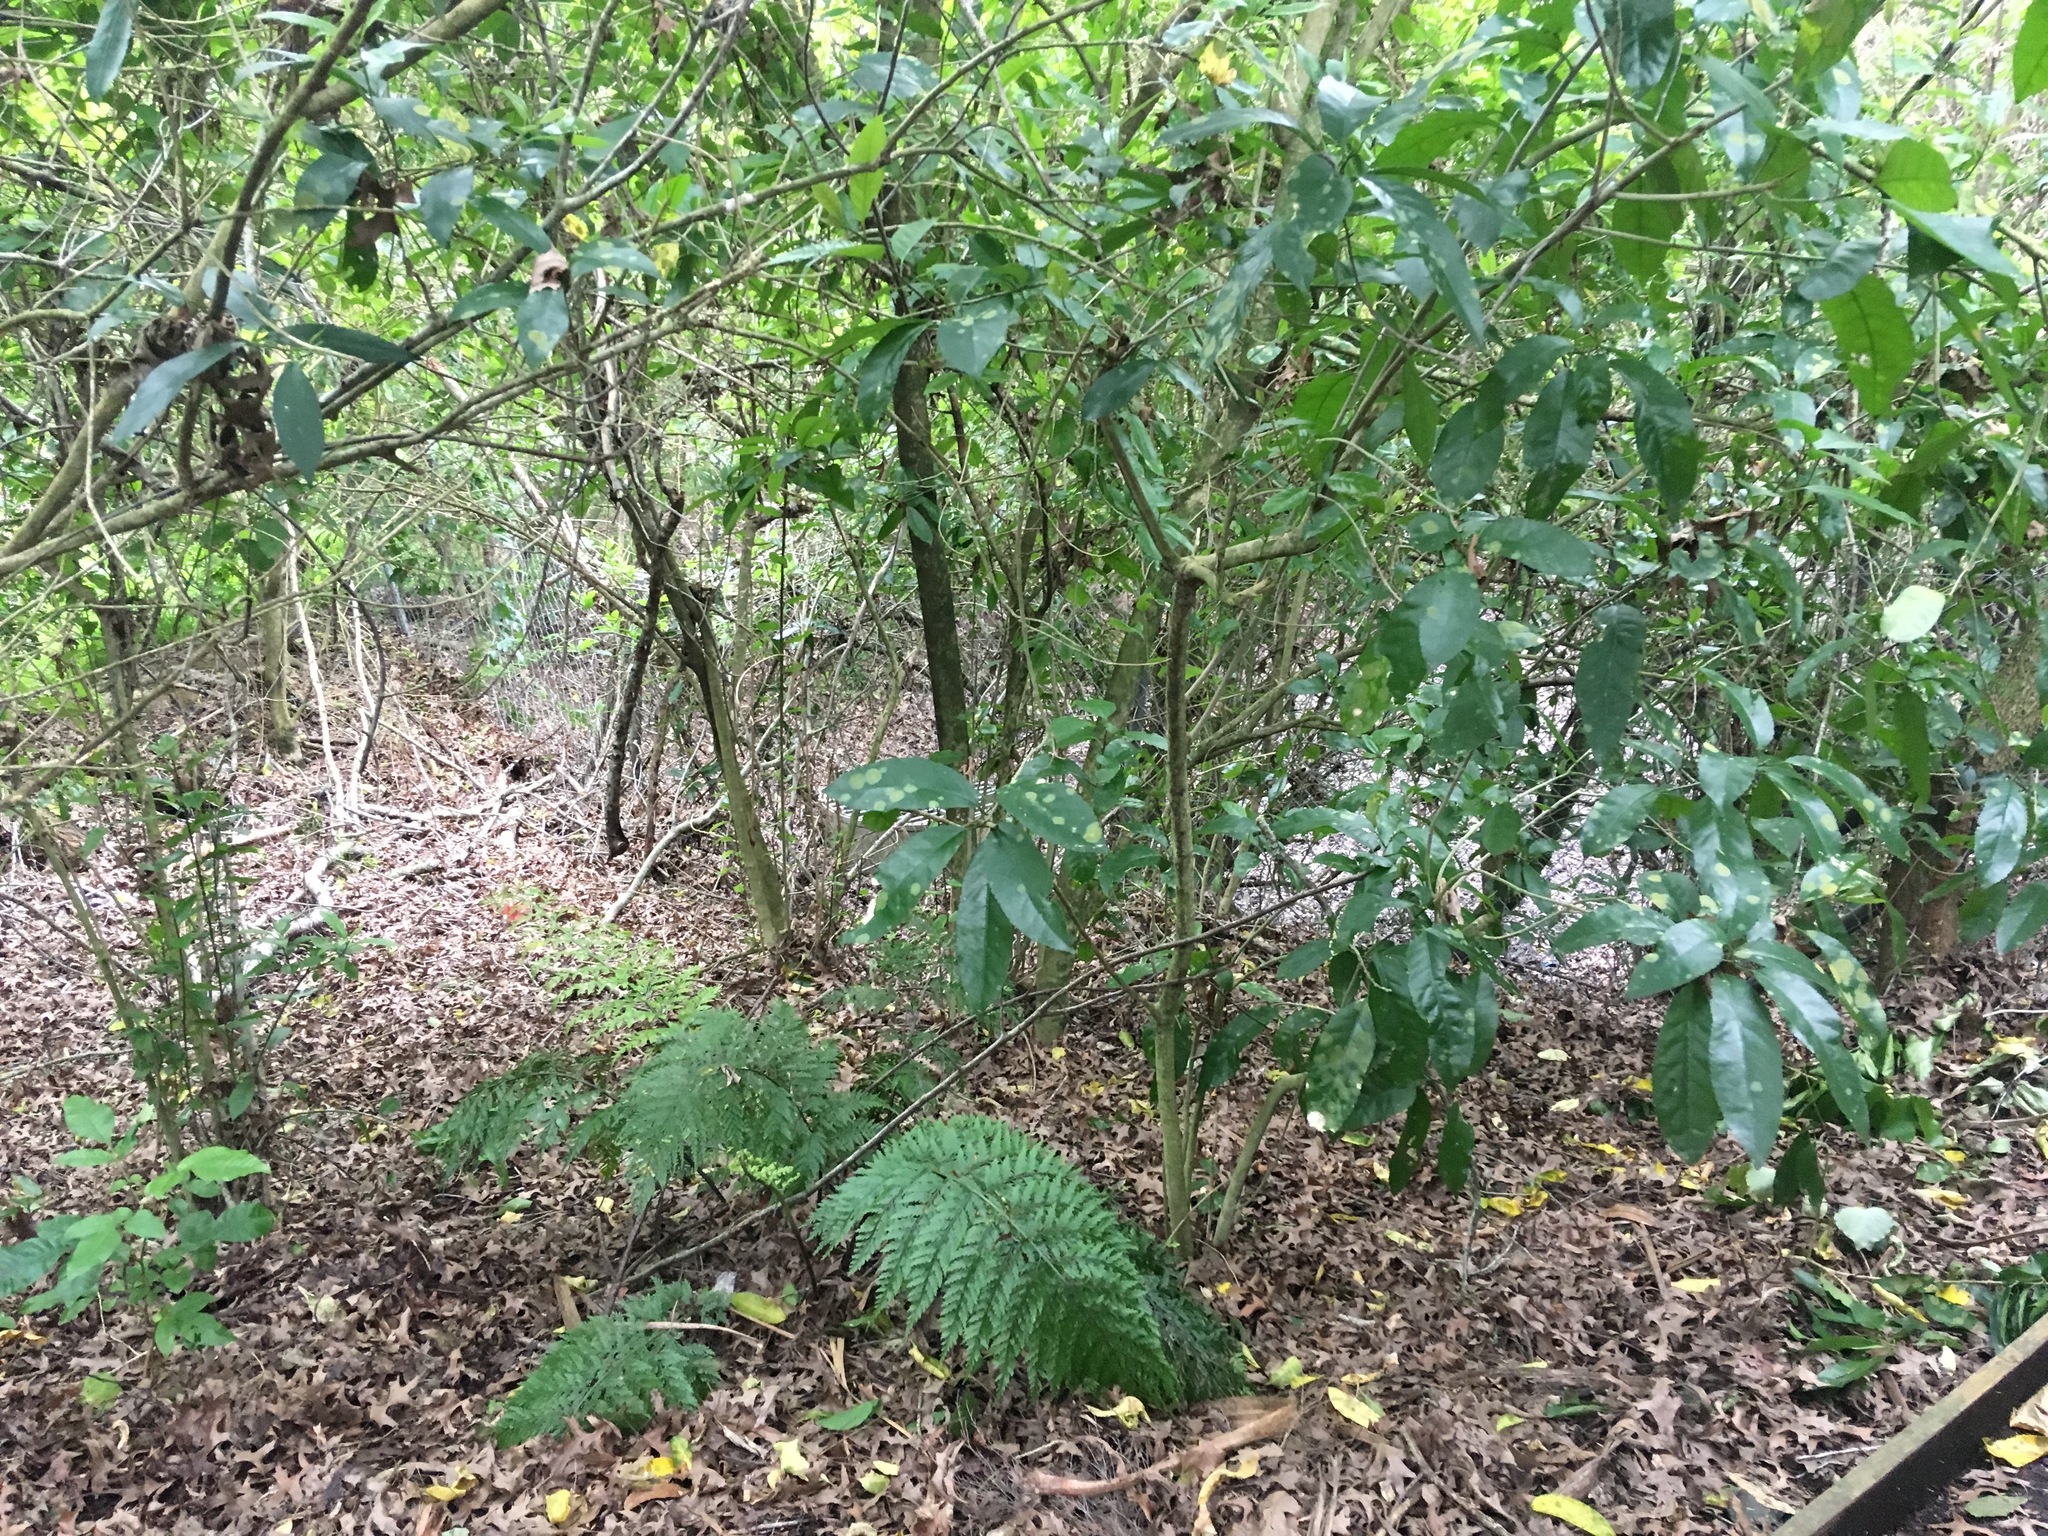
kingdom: Plantae
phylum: Tracheophyta
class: Magnoliopsida
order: Malpighiales
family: Violaceae
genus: Melicytus
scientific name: Melicytus ramiflorus
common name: Mahoe
